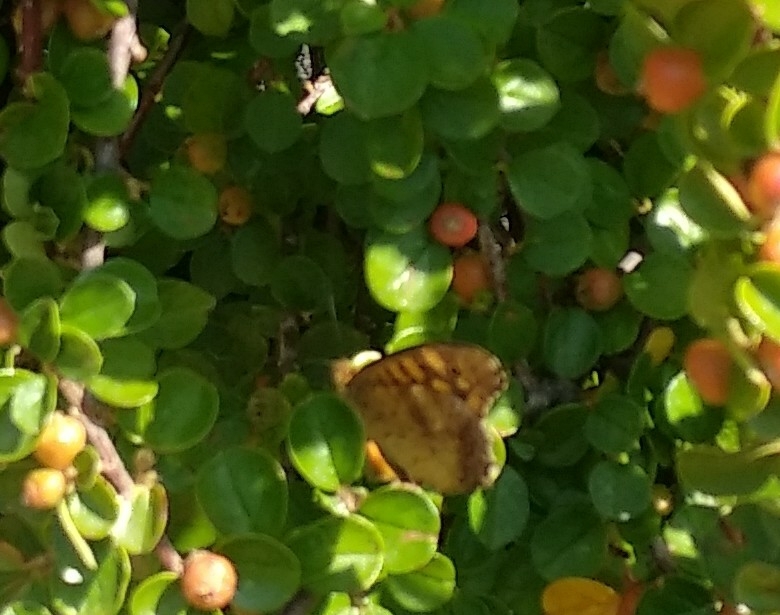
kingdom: Animalia
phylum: Arthropoda
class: Insecta
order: Lepidoptera
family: Nymphalidae
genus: Pararge
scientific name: Pararge aegeria
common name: Speckled wood
